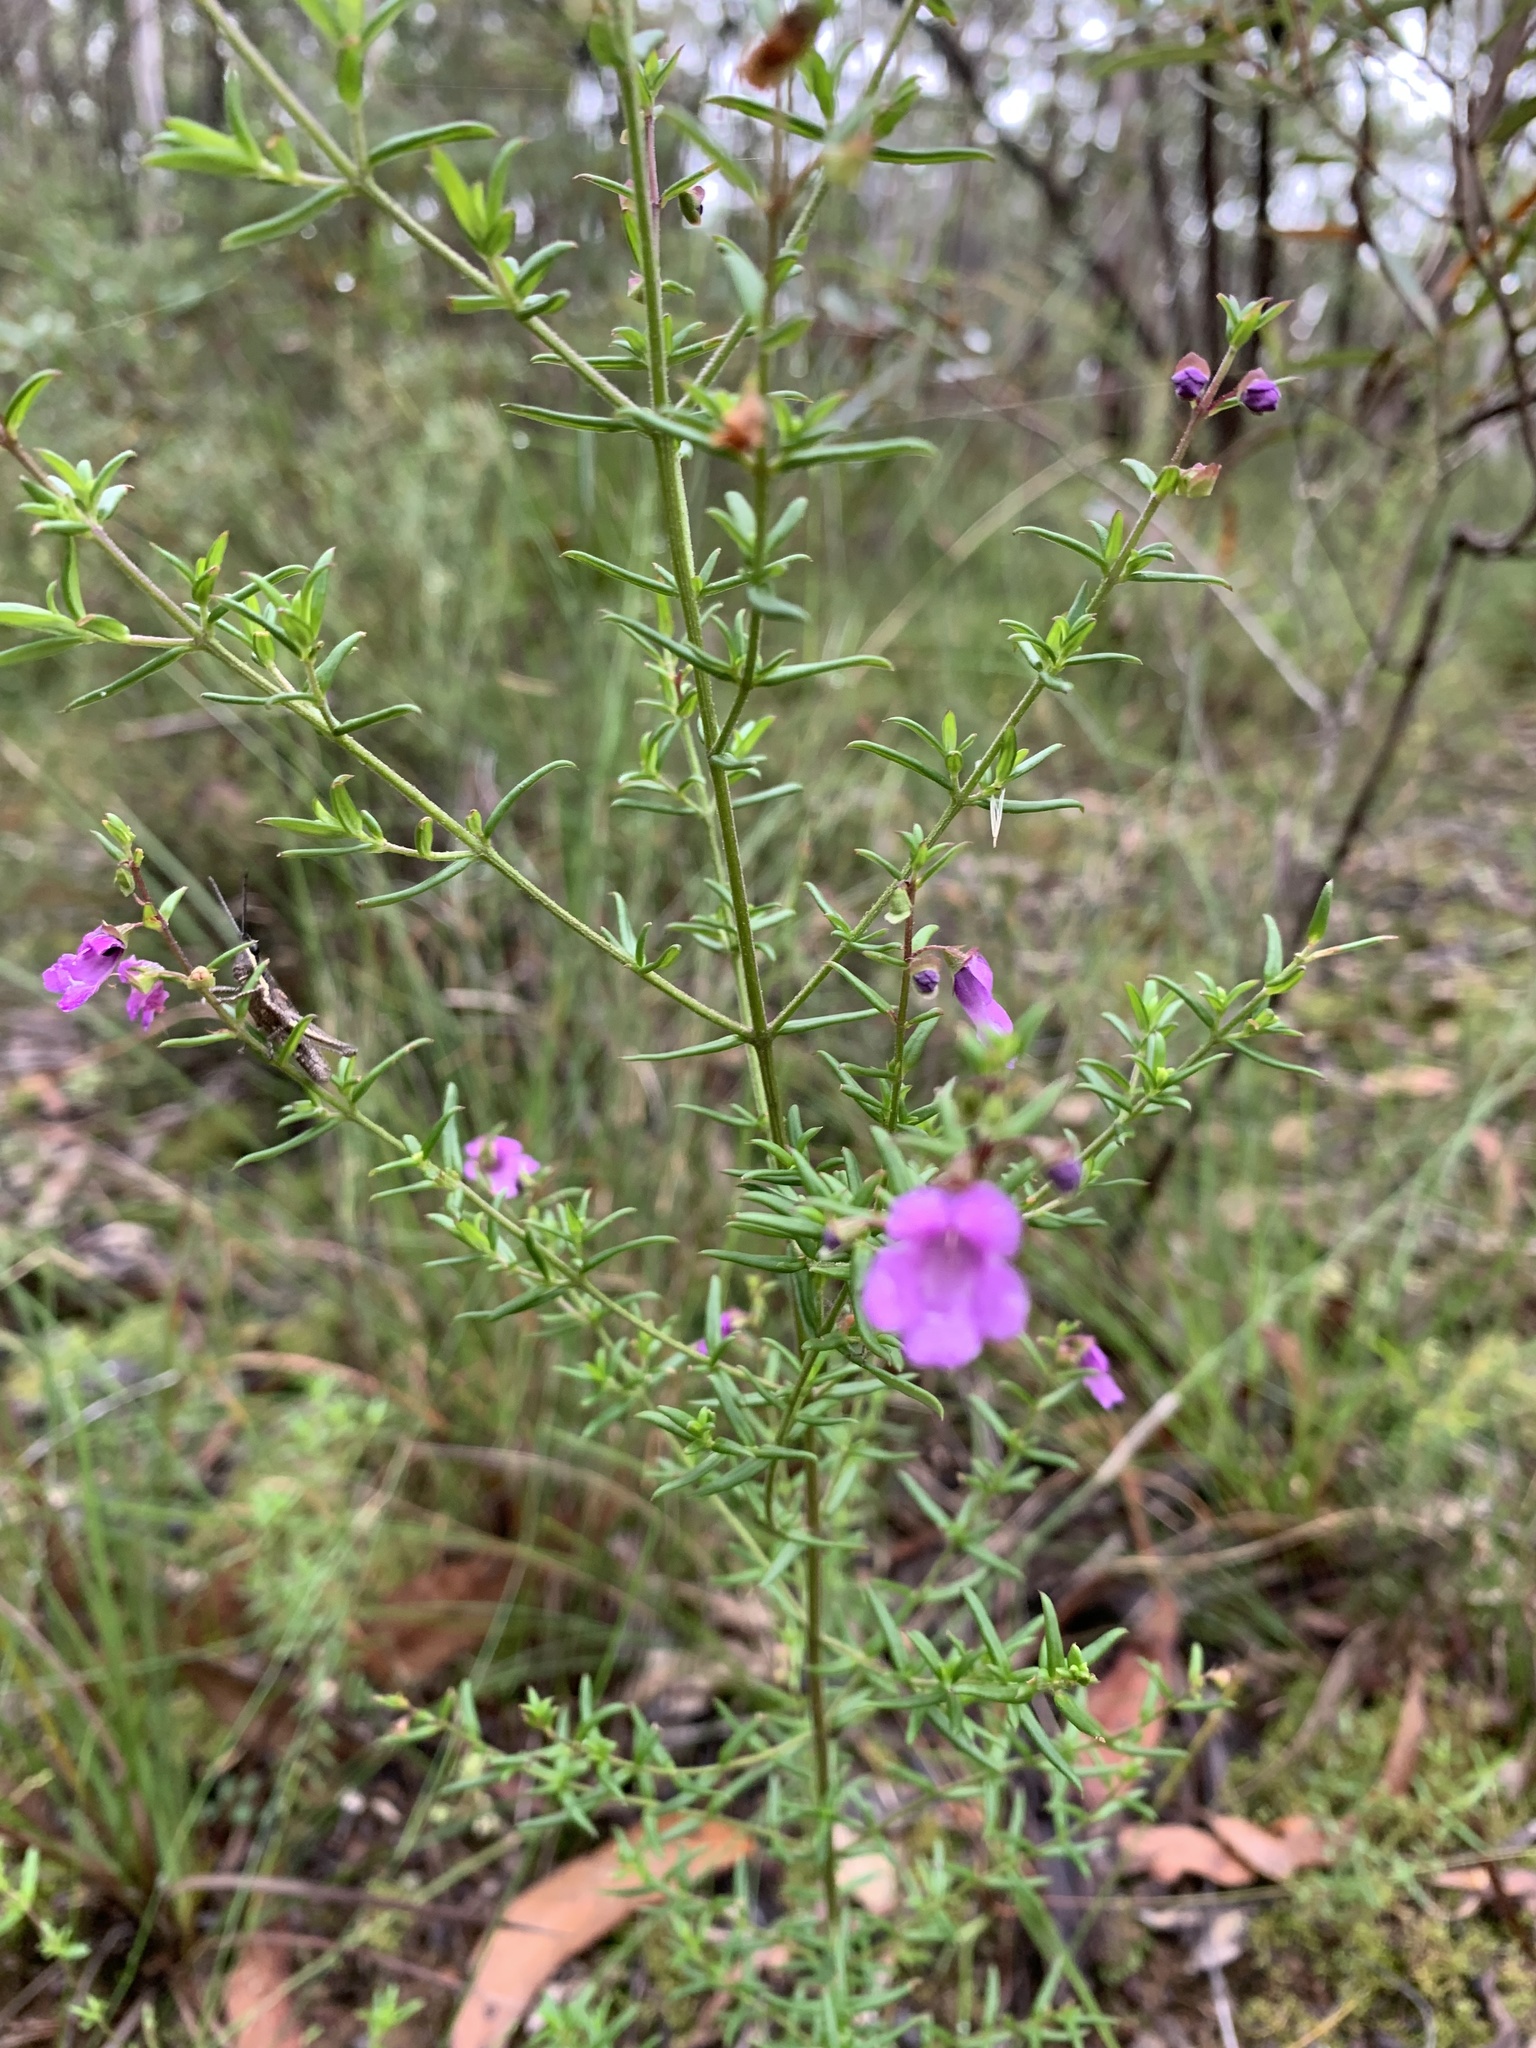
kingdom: Plantae
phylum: Tracheophyta
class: Magnoliopsida
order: Lamiales
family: Lamiaceae
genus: Prostanthera
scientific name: Prostanthera scutellarioides
